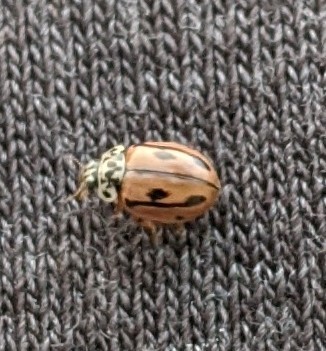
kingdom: Animalia
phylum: Arthropoda
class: Insecta
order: Coleoptera
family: Coccinellidae
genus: Mulsantina
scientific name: Mulsantina hudsonica
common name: Hudsonian ladybird
